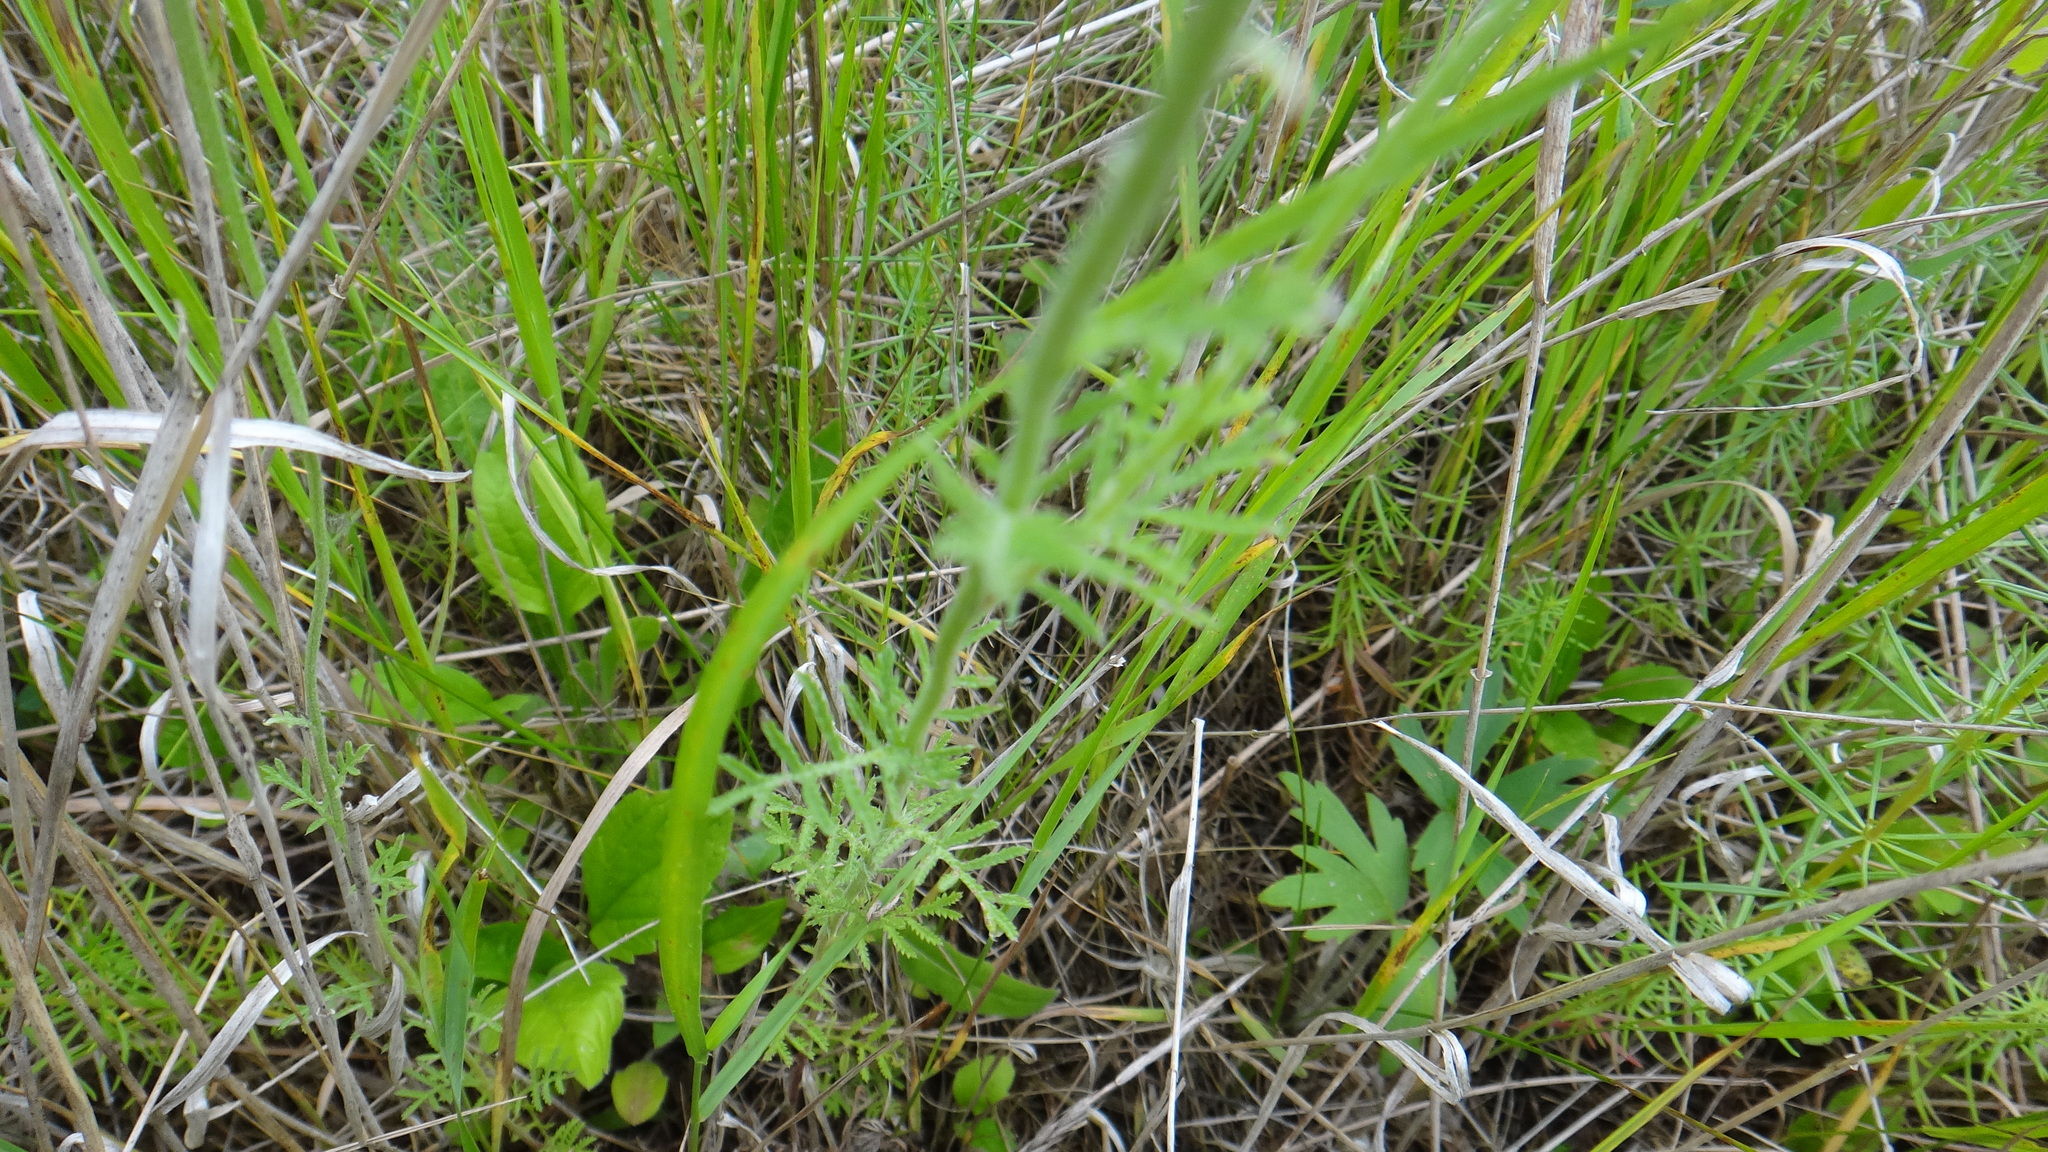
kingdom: Plantae
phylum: Tracheophyta
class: Magnoliopsida
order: Asterales
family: Asteraceae
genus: Cota
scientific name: Cota tinctoria
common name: Golden chamomile
